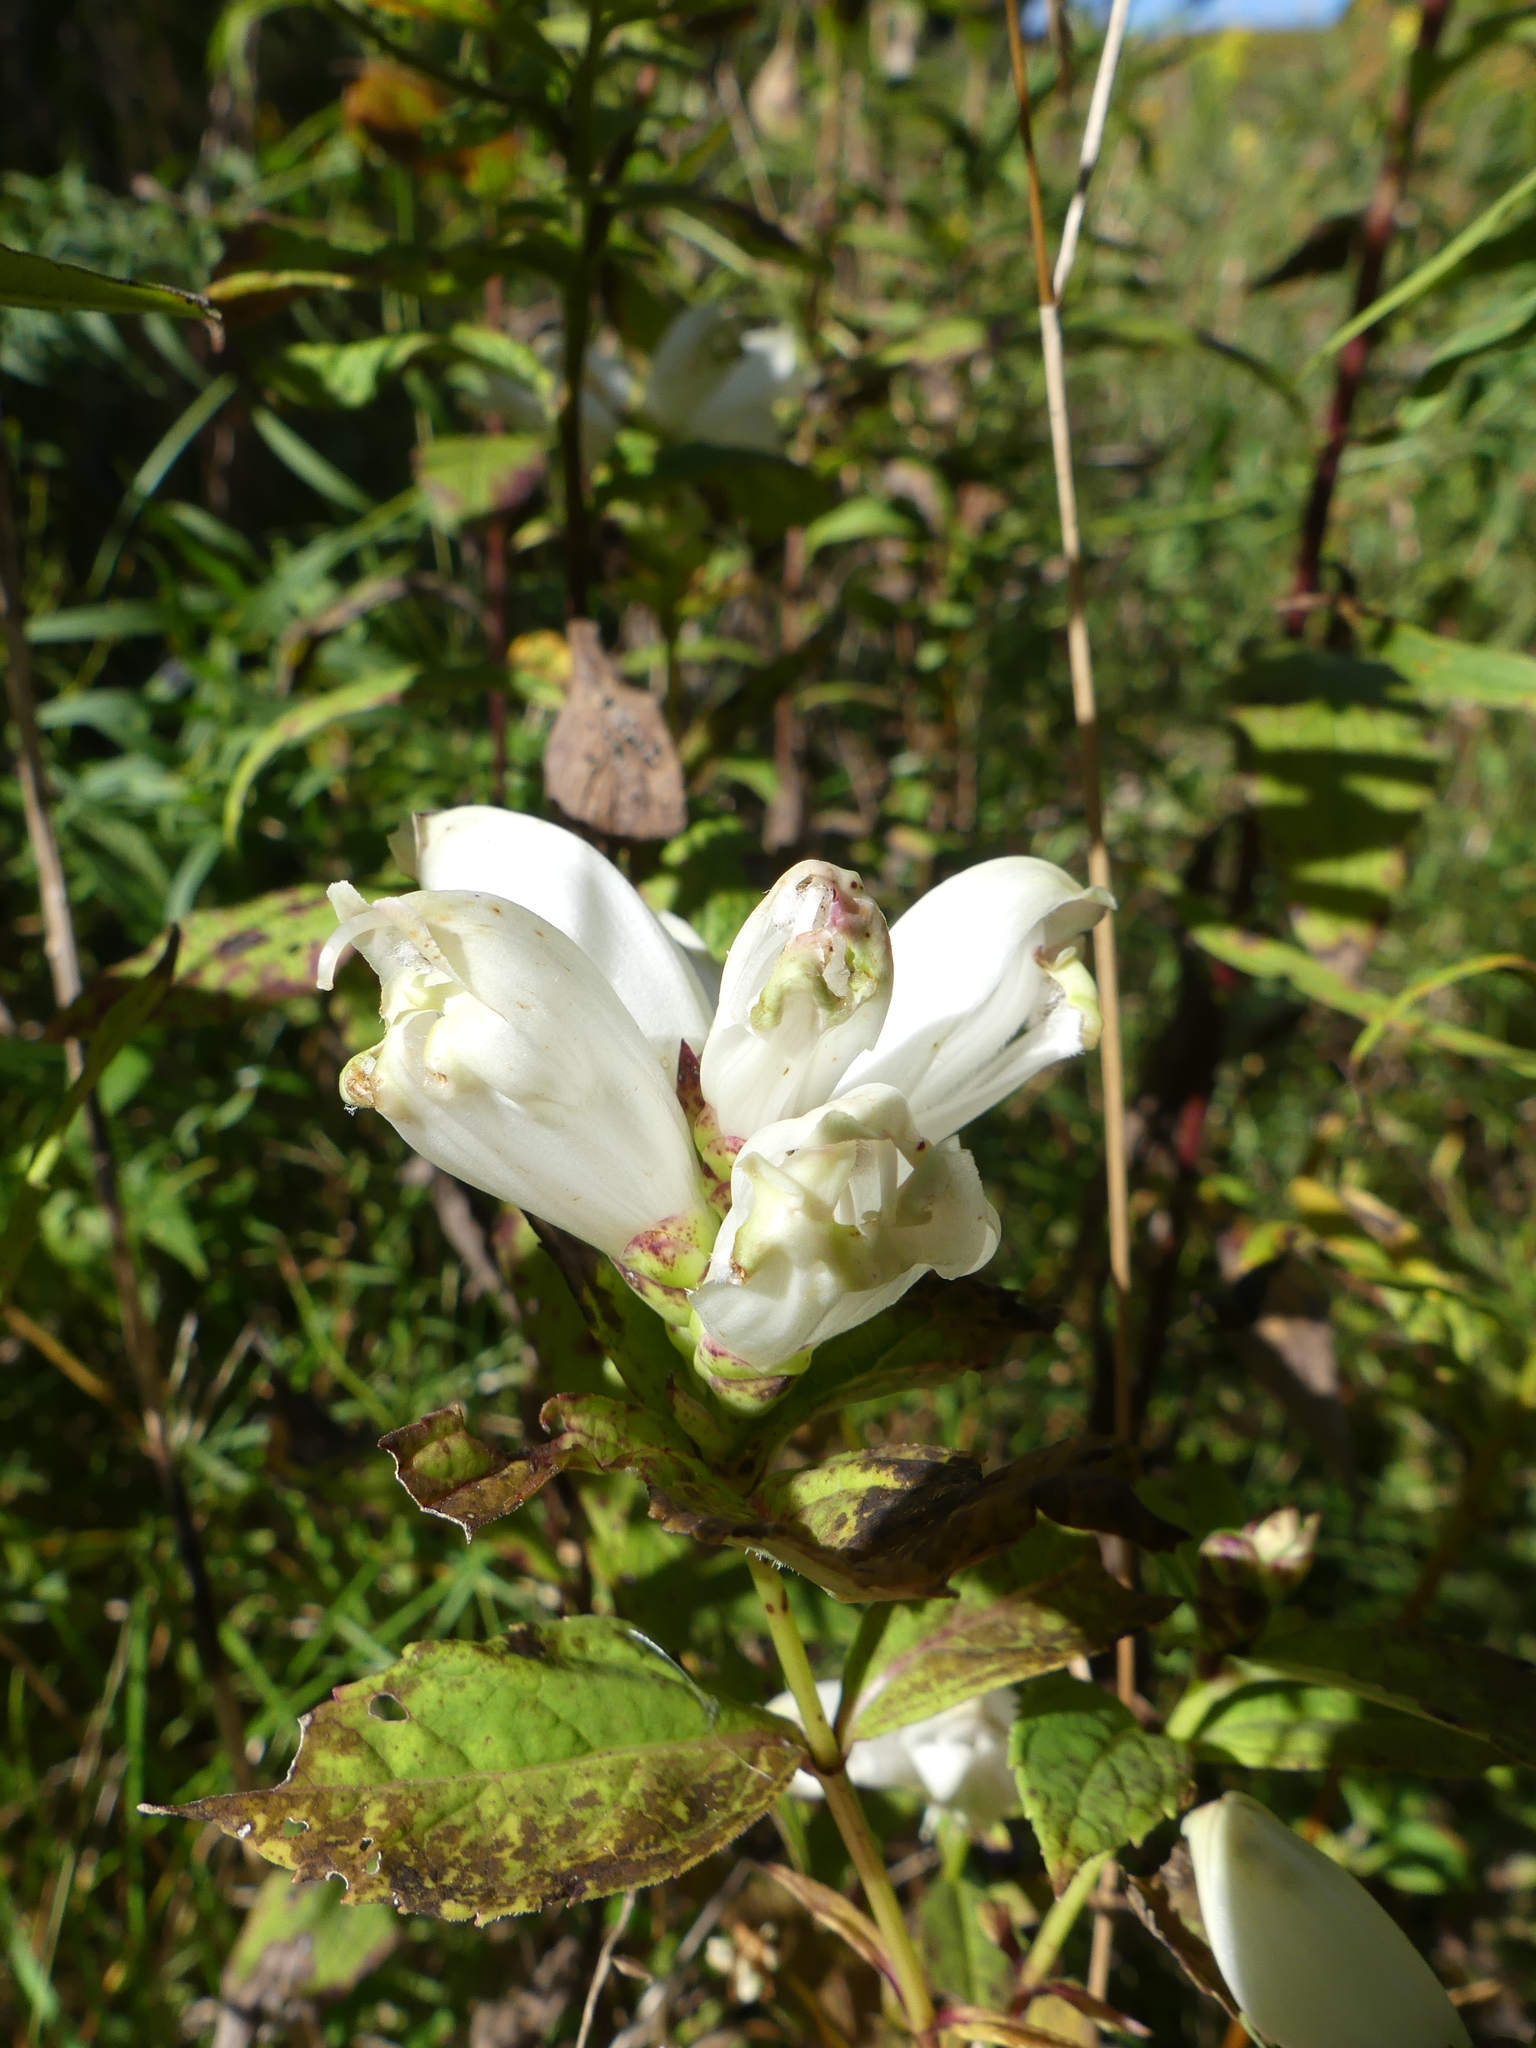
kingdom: Plantae
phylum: Tracheophyta
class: Magnoliopsida
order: Lamiales
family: Plantaginaceae
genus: Chelone
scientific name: Chelone glabra
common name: Snakehead
